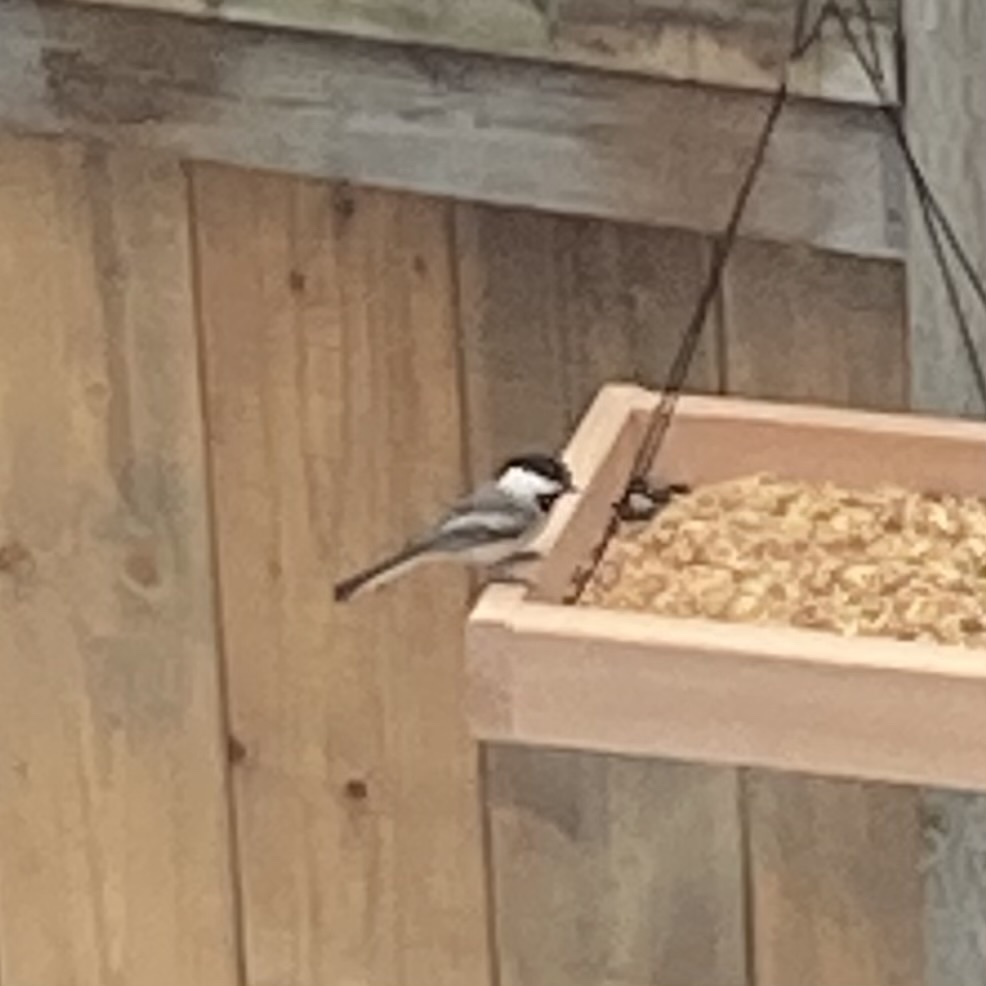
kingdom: Animalia
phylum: Chordata
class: Aves
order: Passeriformes
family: Paridae
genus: Poecile
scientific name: Poecile atricapillus
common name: Black-capped chickadee
